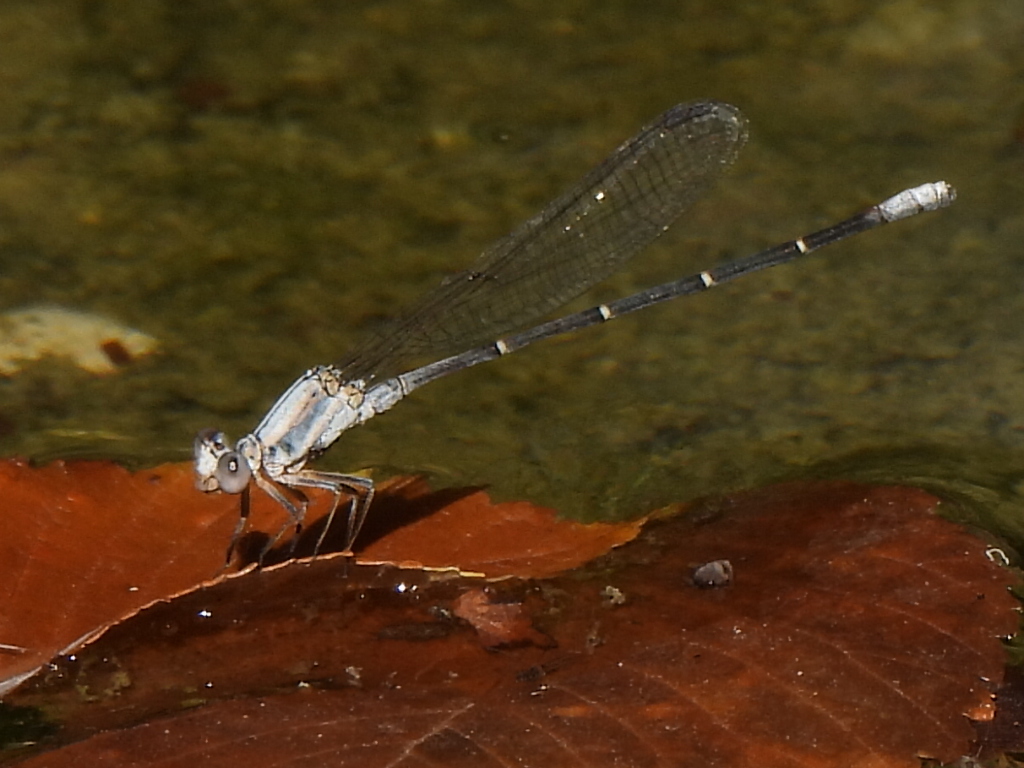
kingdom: Animalia
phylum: Arthropoda
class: Insecta
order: Odonata
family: Coenagrionidae
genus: Argia
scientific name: Argia moesta
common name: Powdered dancer
